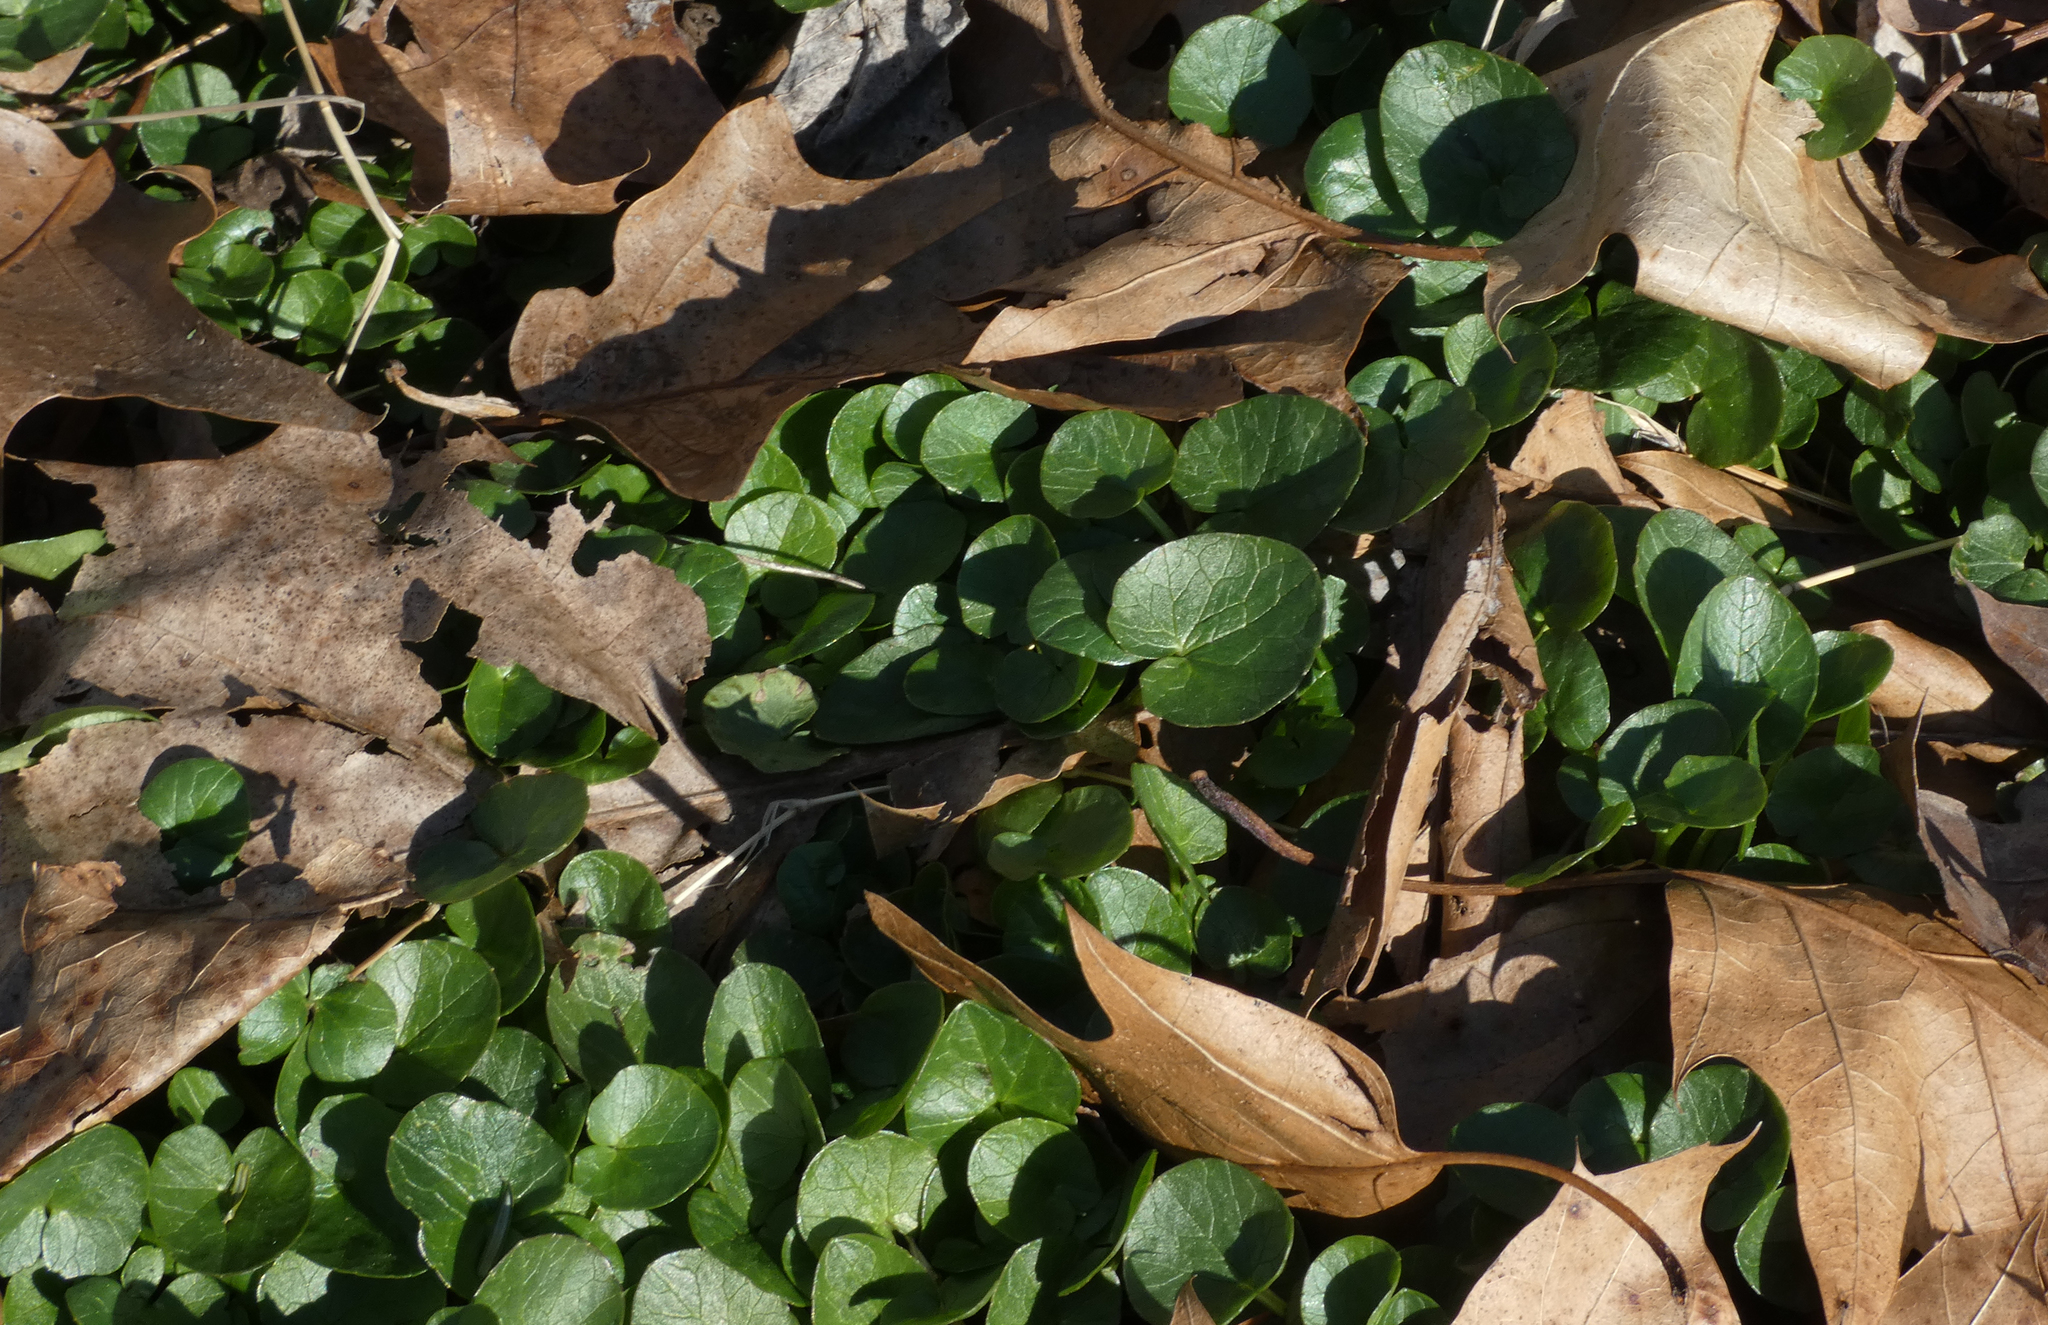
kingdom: Plantae
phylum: Tracheophyta
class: Magnoliopsida
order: Ranunculales
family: Ranunculaceae
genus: Ficaria
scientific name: Ficaria verna
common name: Lesser celandine
